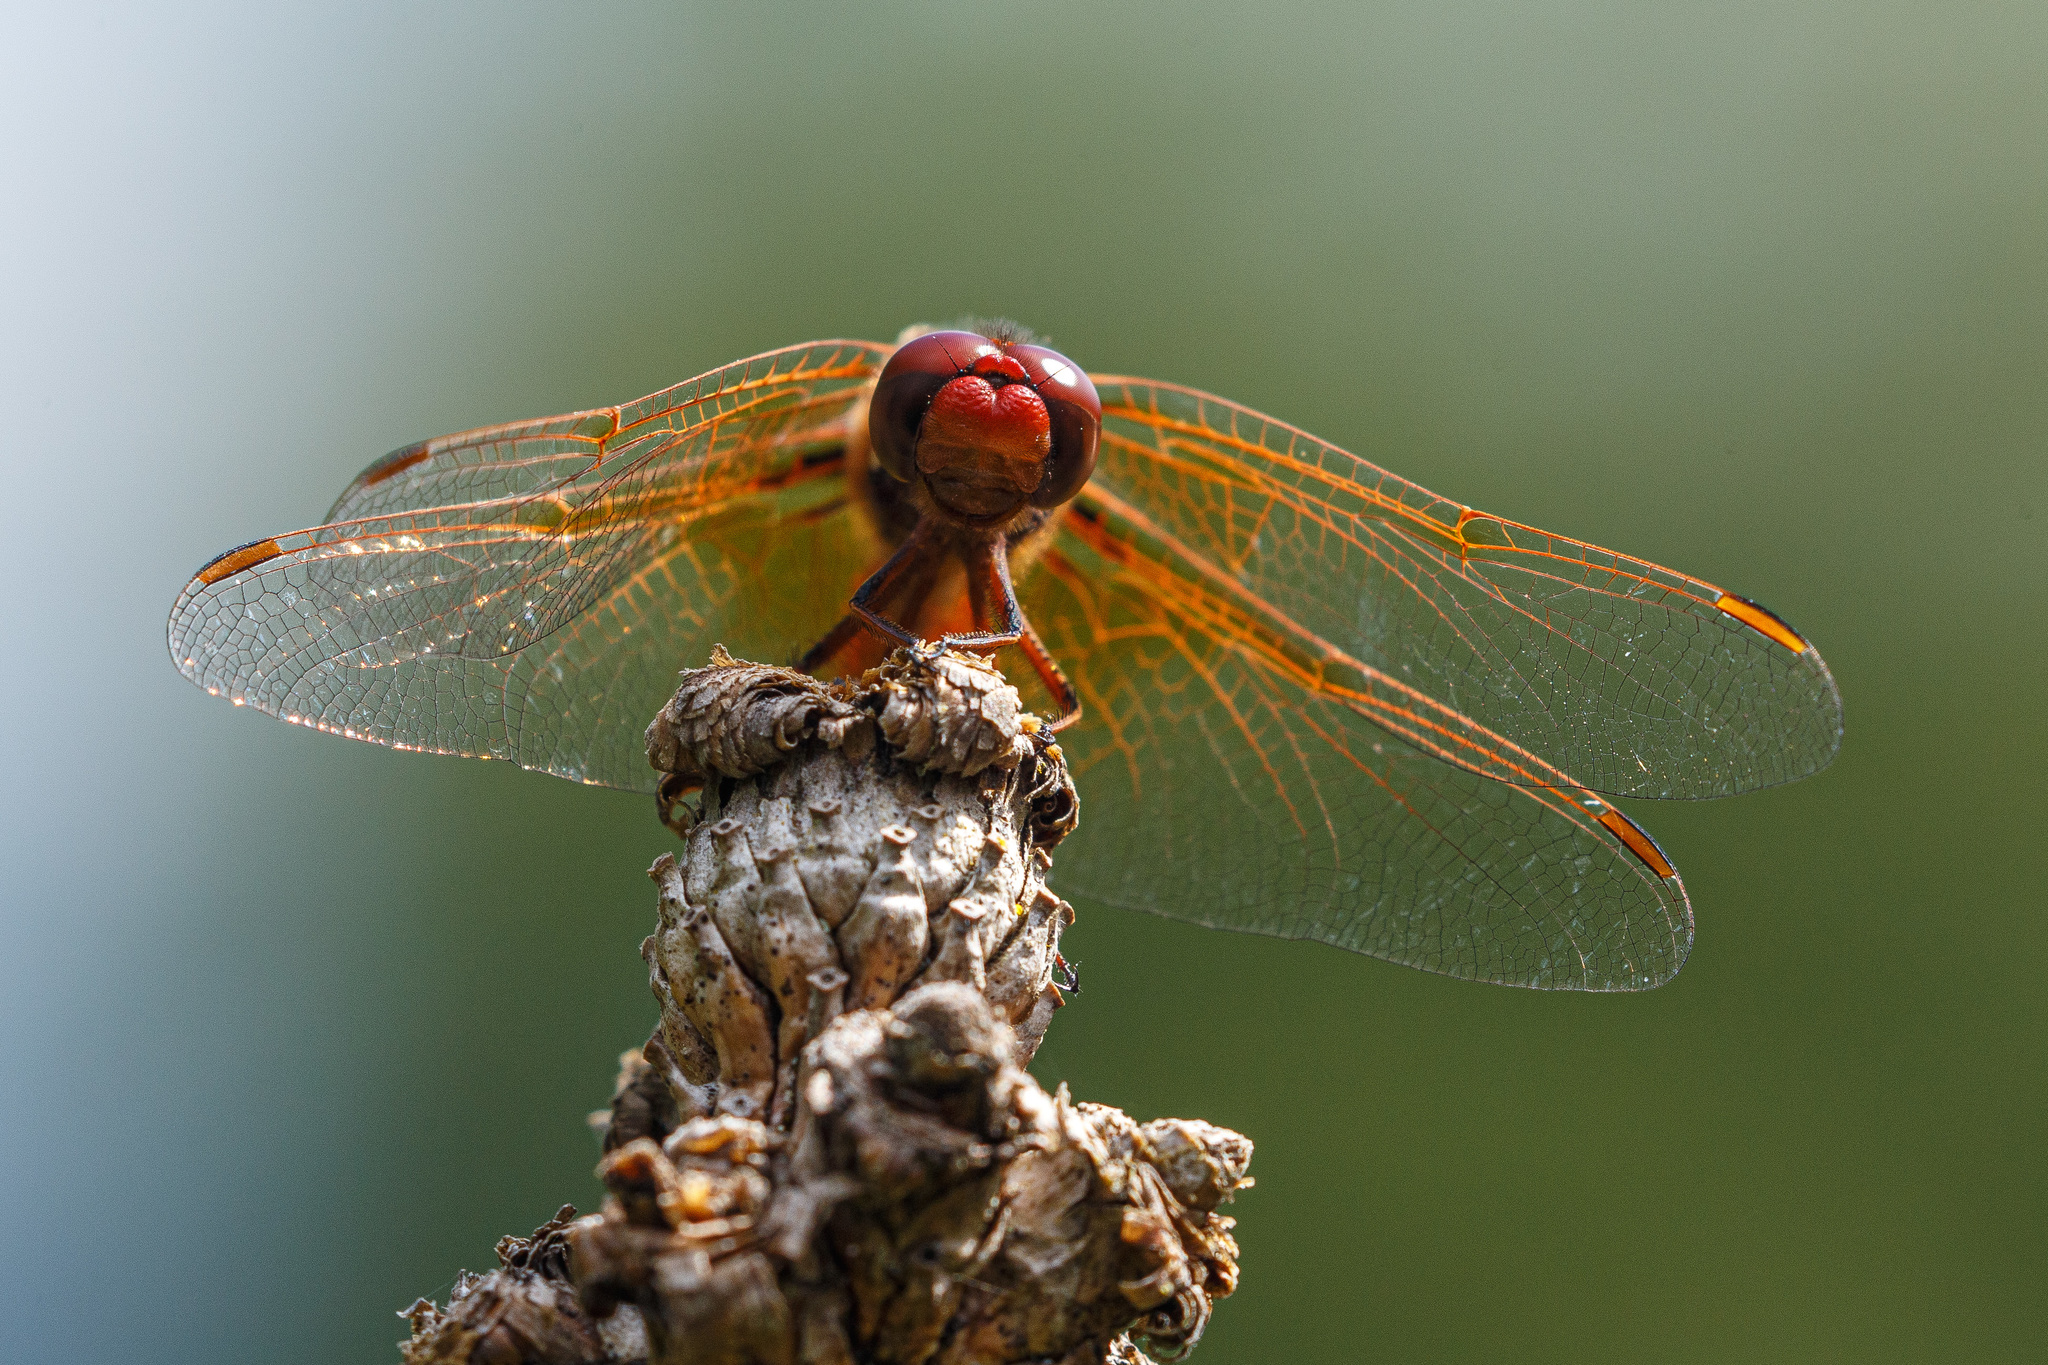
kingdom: Animalia
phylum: Arthropoda
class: Insecta
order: Odonata
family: Libellulidae
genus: Sympetrum
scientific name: Sympetrum illotum
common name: Cardinal meadowhawk
